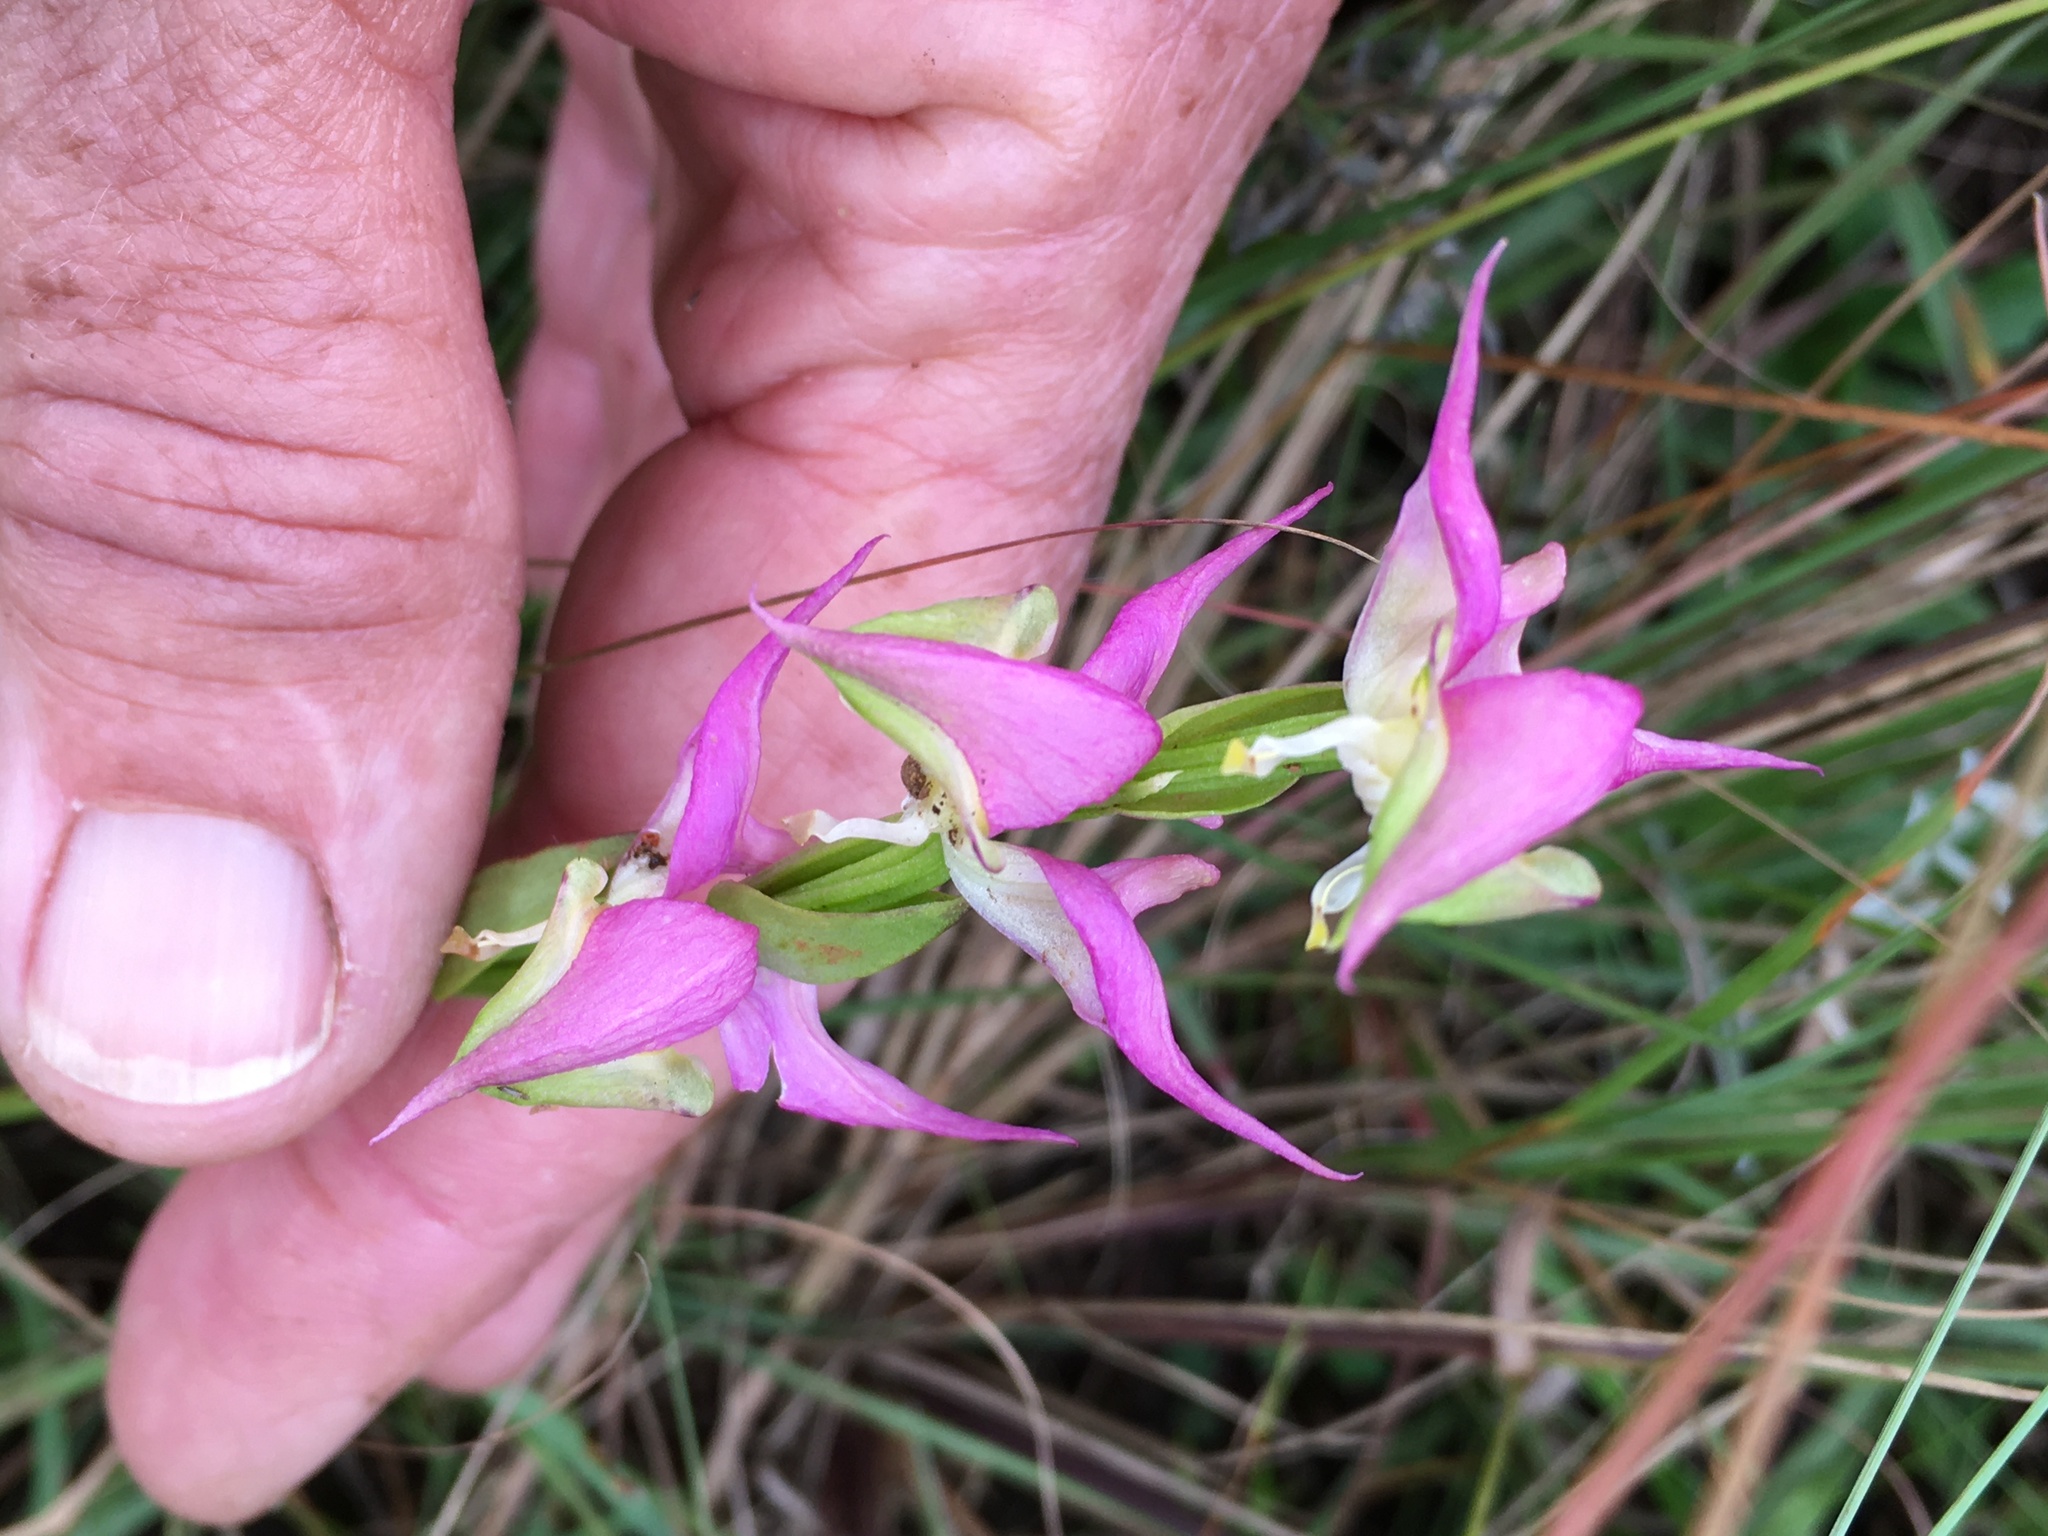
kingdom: Plantae
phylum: Tracheophyta
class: Liliopsida
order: Asparagales
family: Orchidaceae
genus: Disperis
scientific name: Disperis oxyglossa
